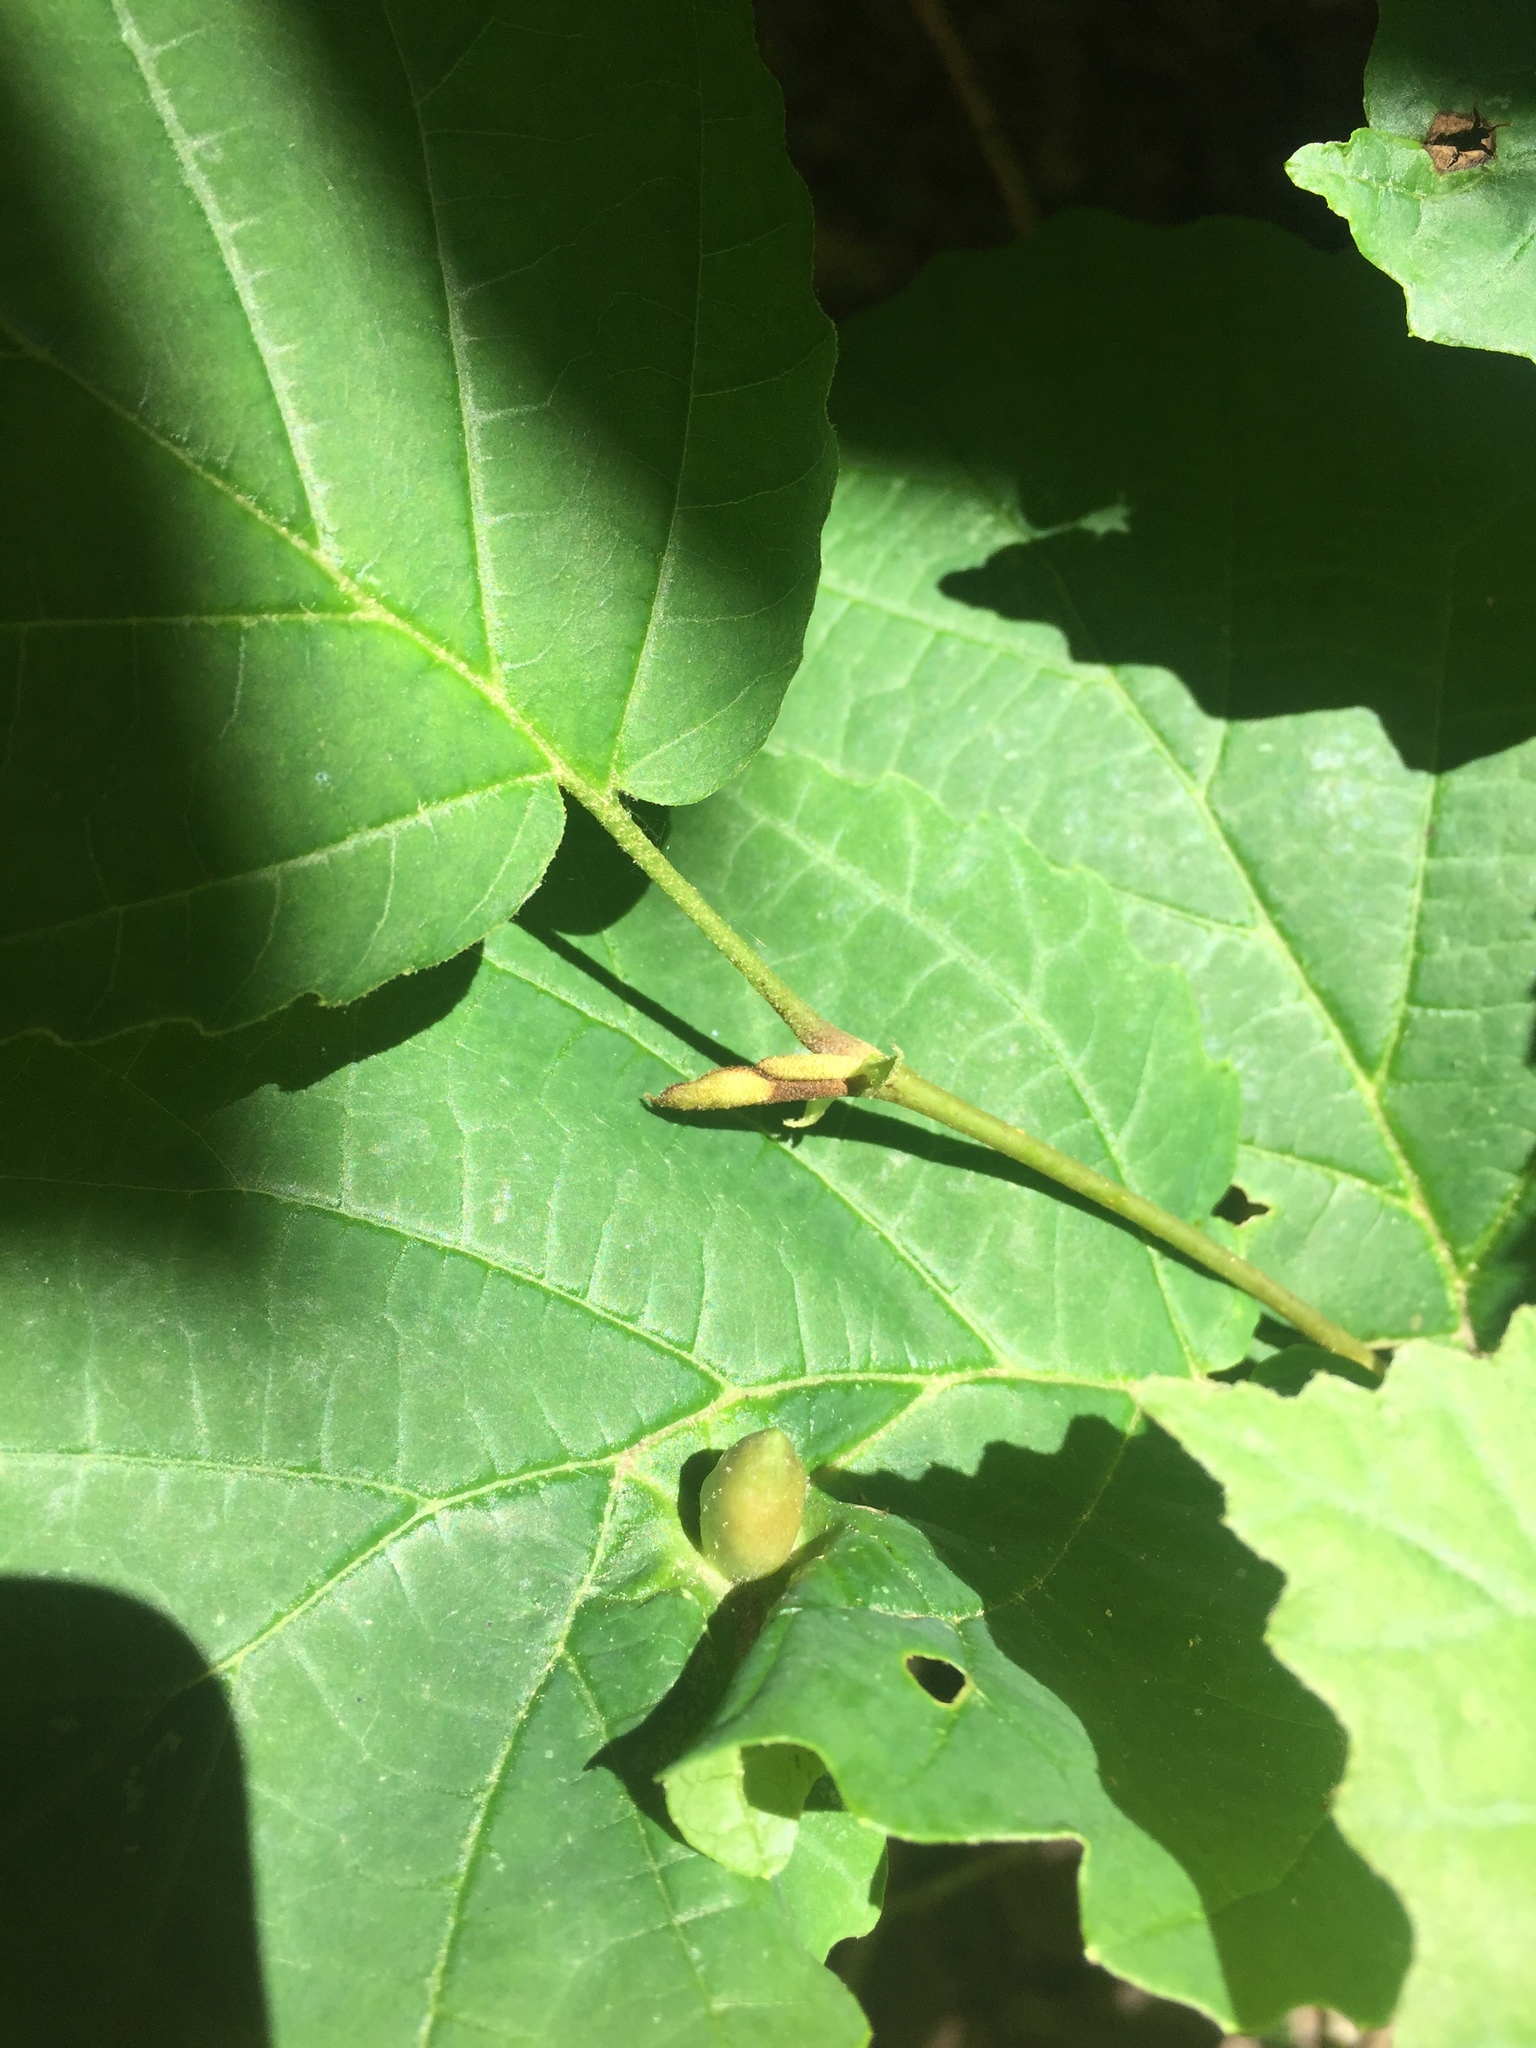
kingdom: Animalia
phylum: Arthropoda
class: Insecta
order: Hemiptera
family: Aphididae
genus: Hormaphis
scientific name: Hormaphis hamamelidis
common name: Witch-hazel cone gall aphid
